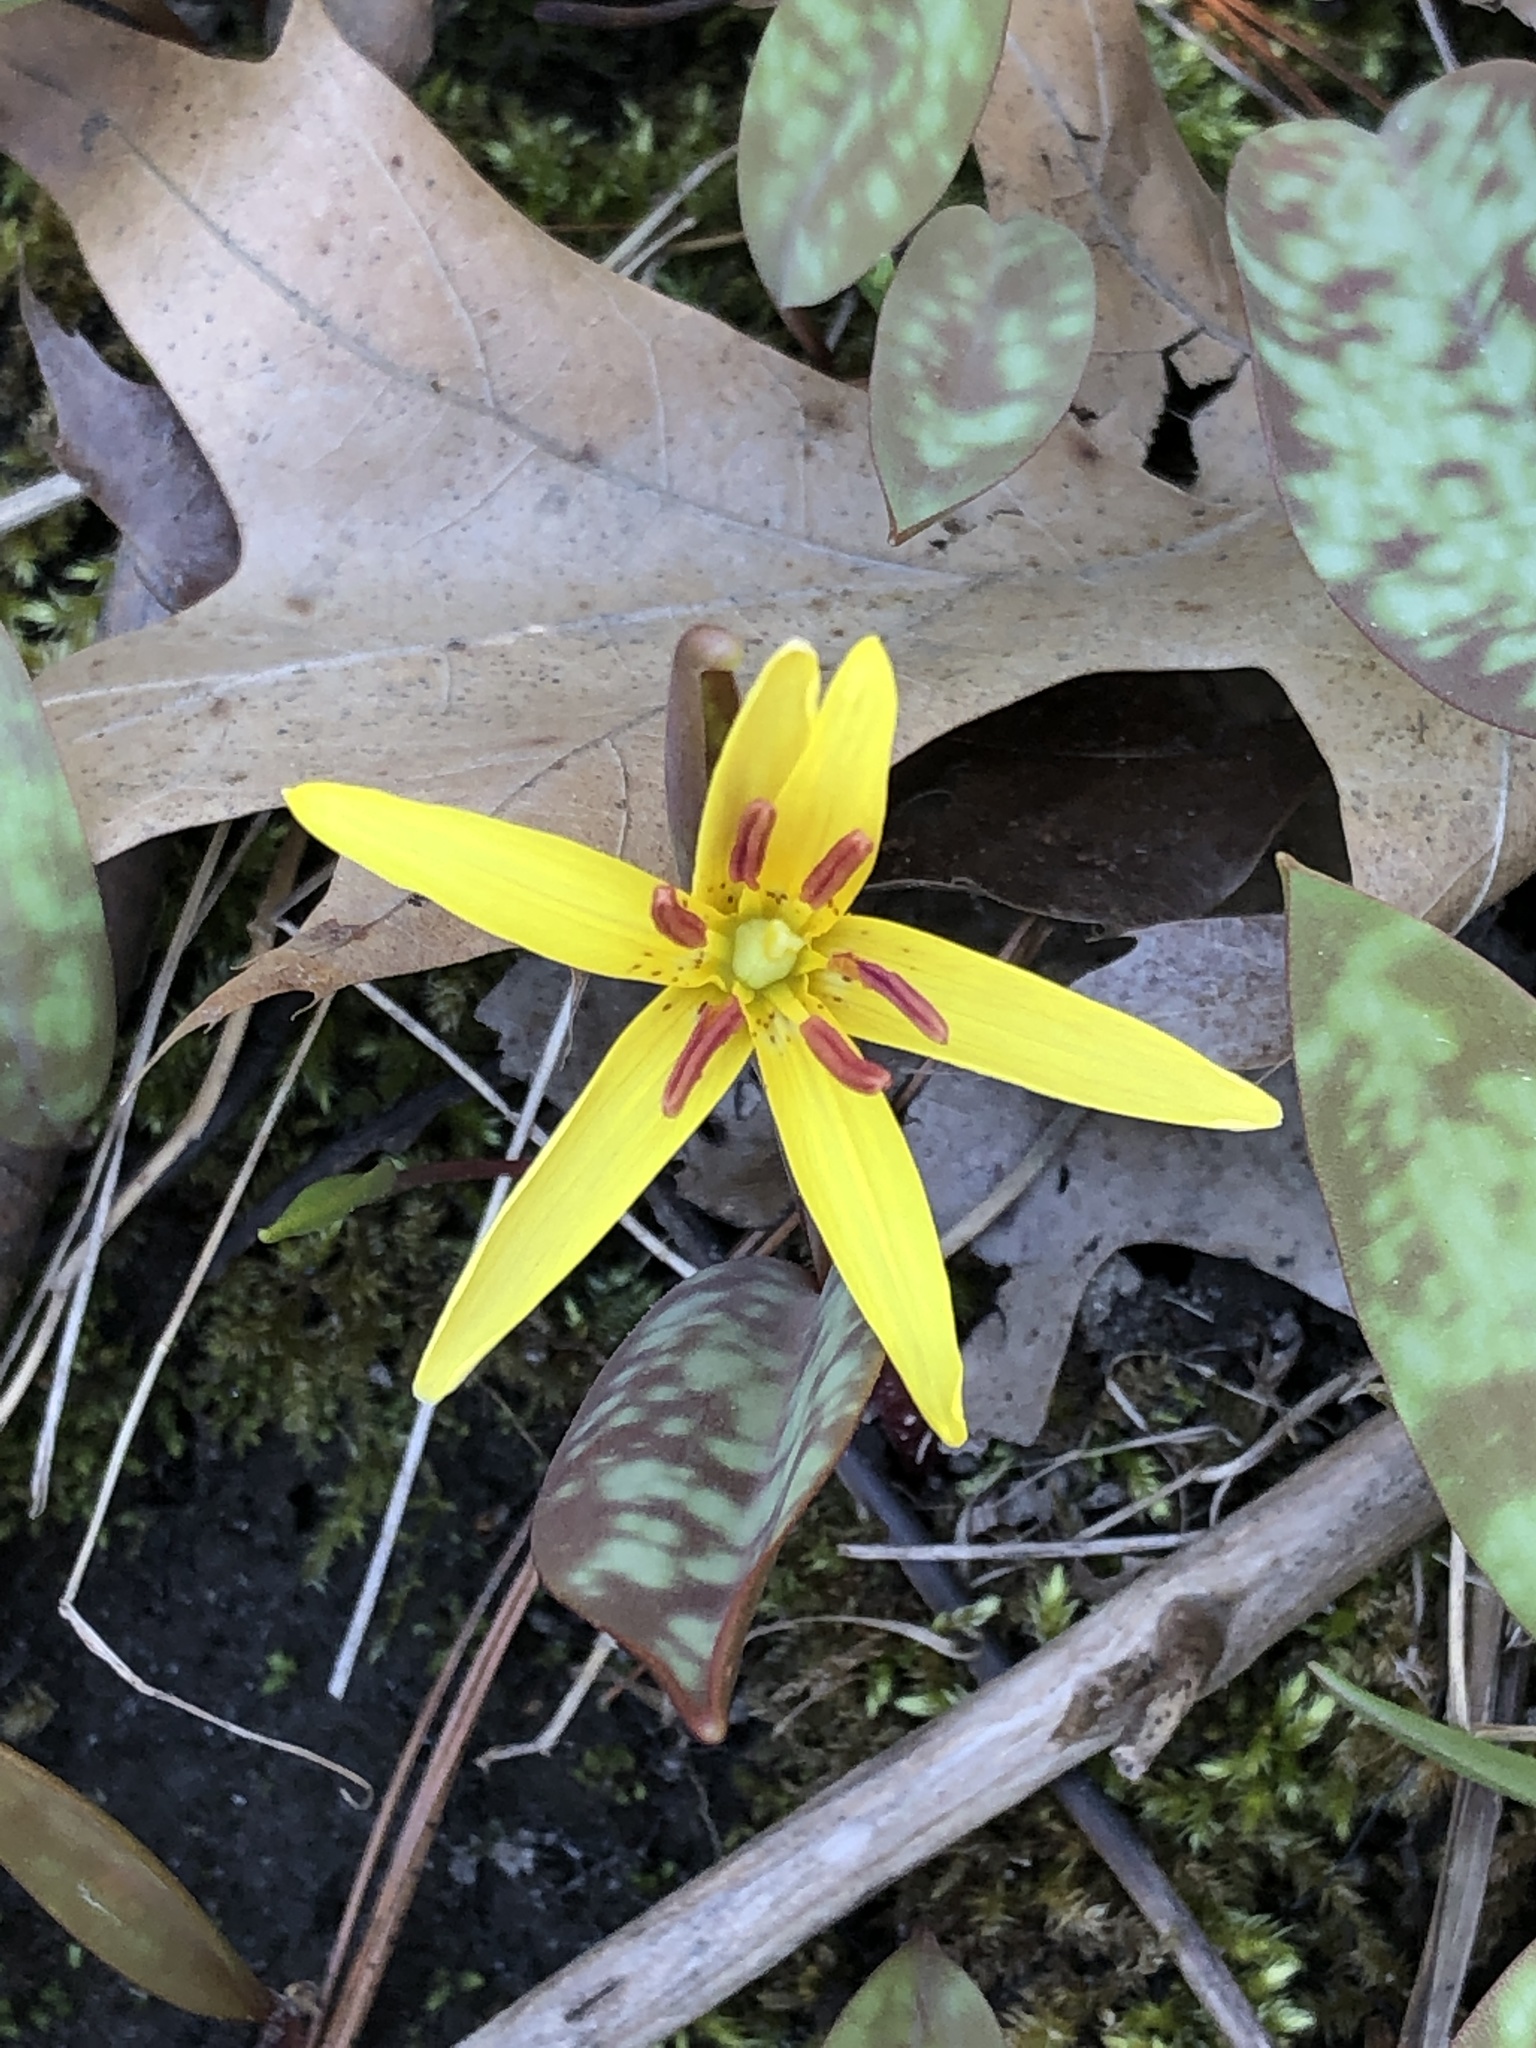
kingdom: Plantae
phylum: Tracheophyta
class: Liliopsida
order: Liliales
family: Liliaceae
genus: Erythronium
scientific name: Erythronium americanum
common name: Yellow adder's-tongue
